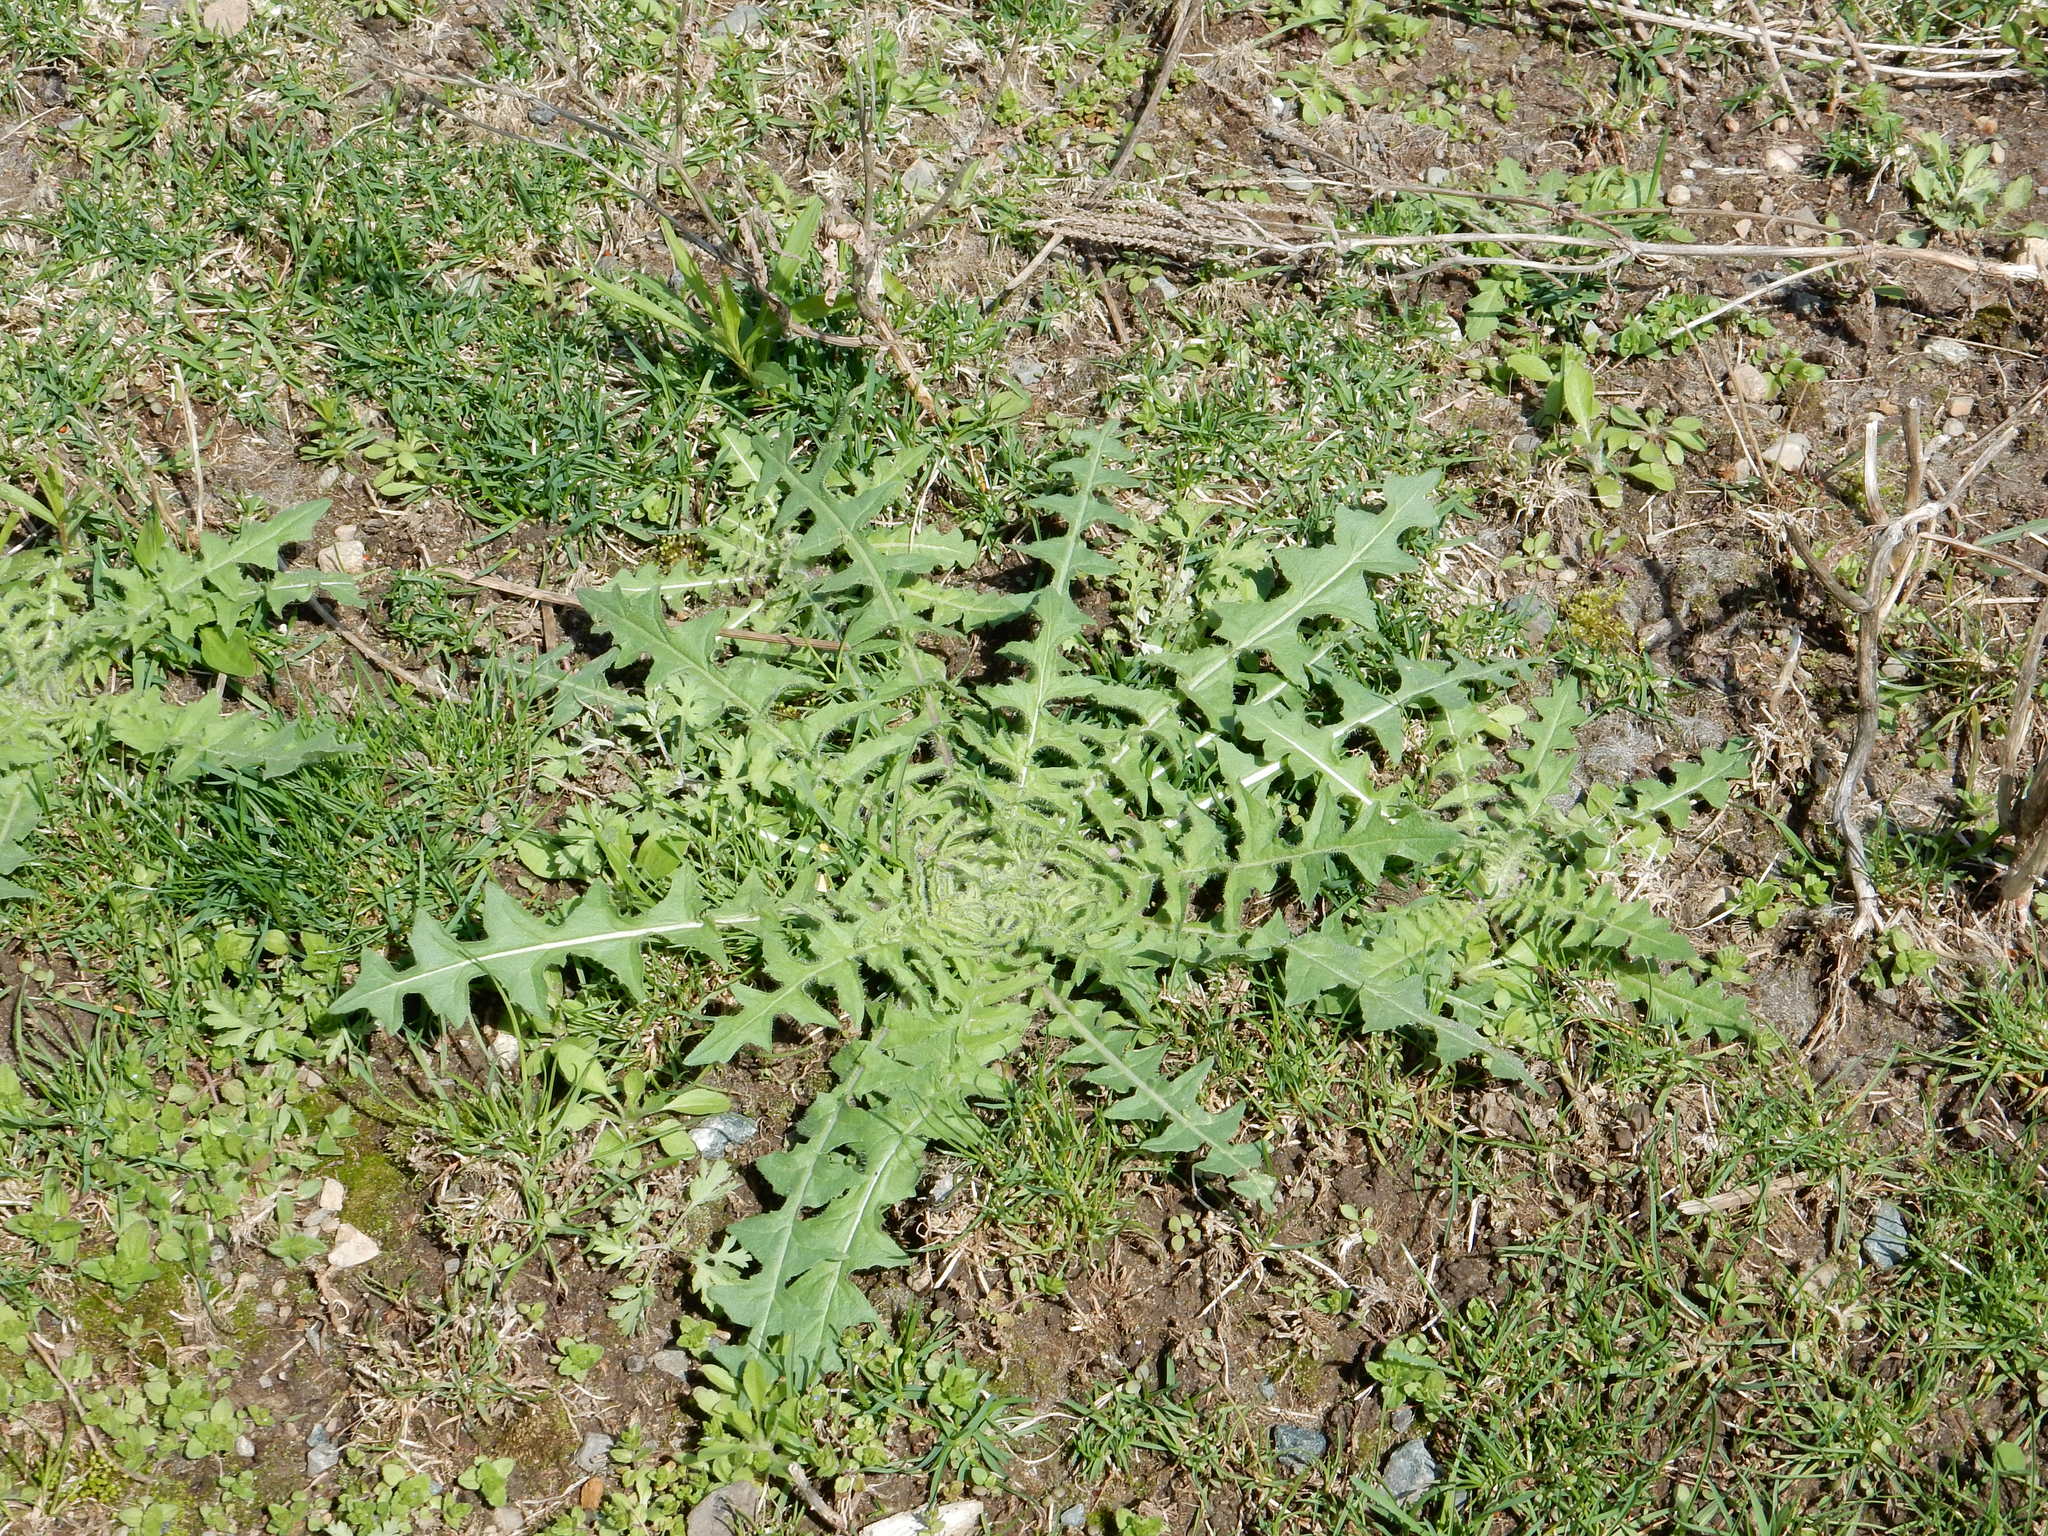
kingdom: Plantae
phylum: Tracheophyta
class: Magnoliopsida
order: Asterales
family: Asteraceae
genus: Taraxacum
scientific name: Taraxacum officinale
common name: Common dandelion
